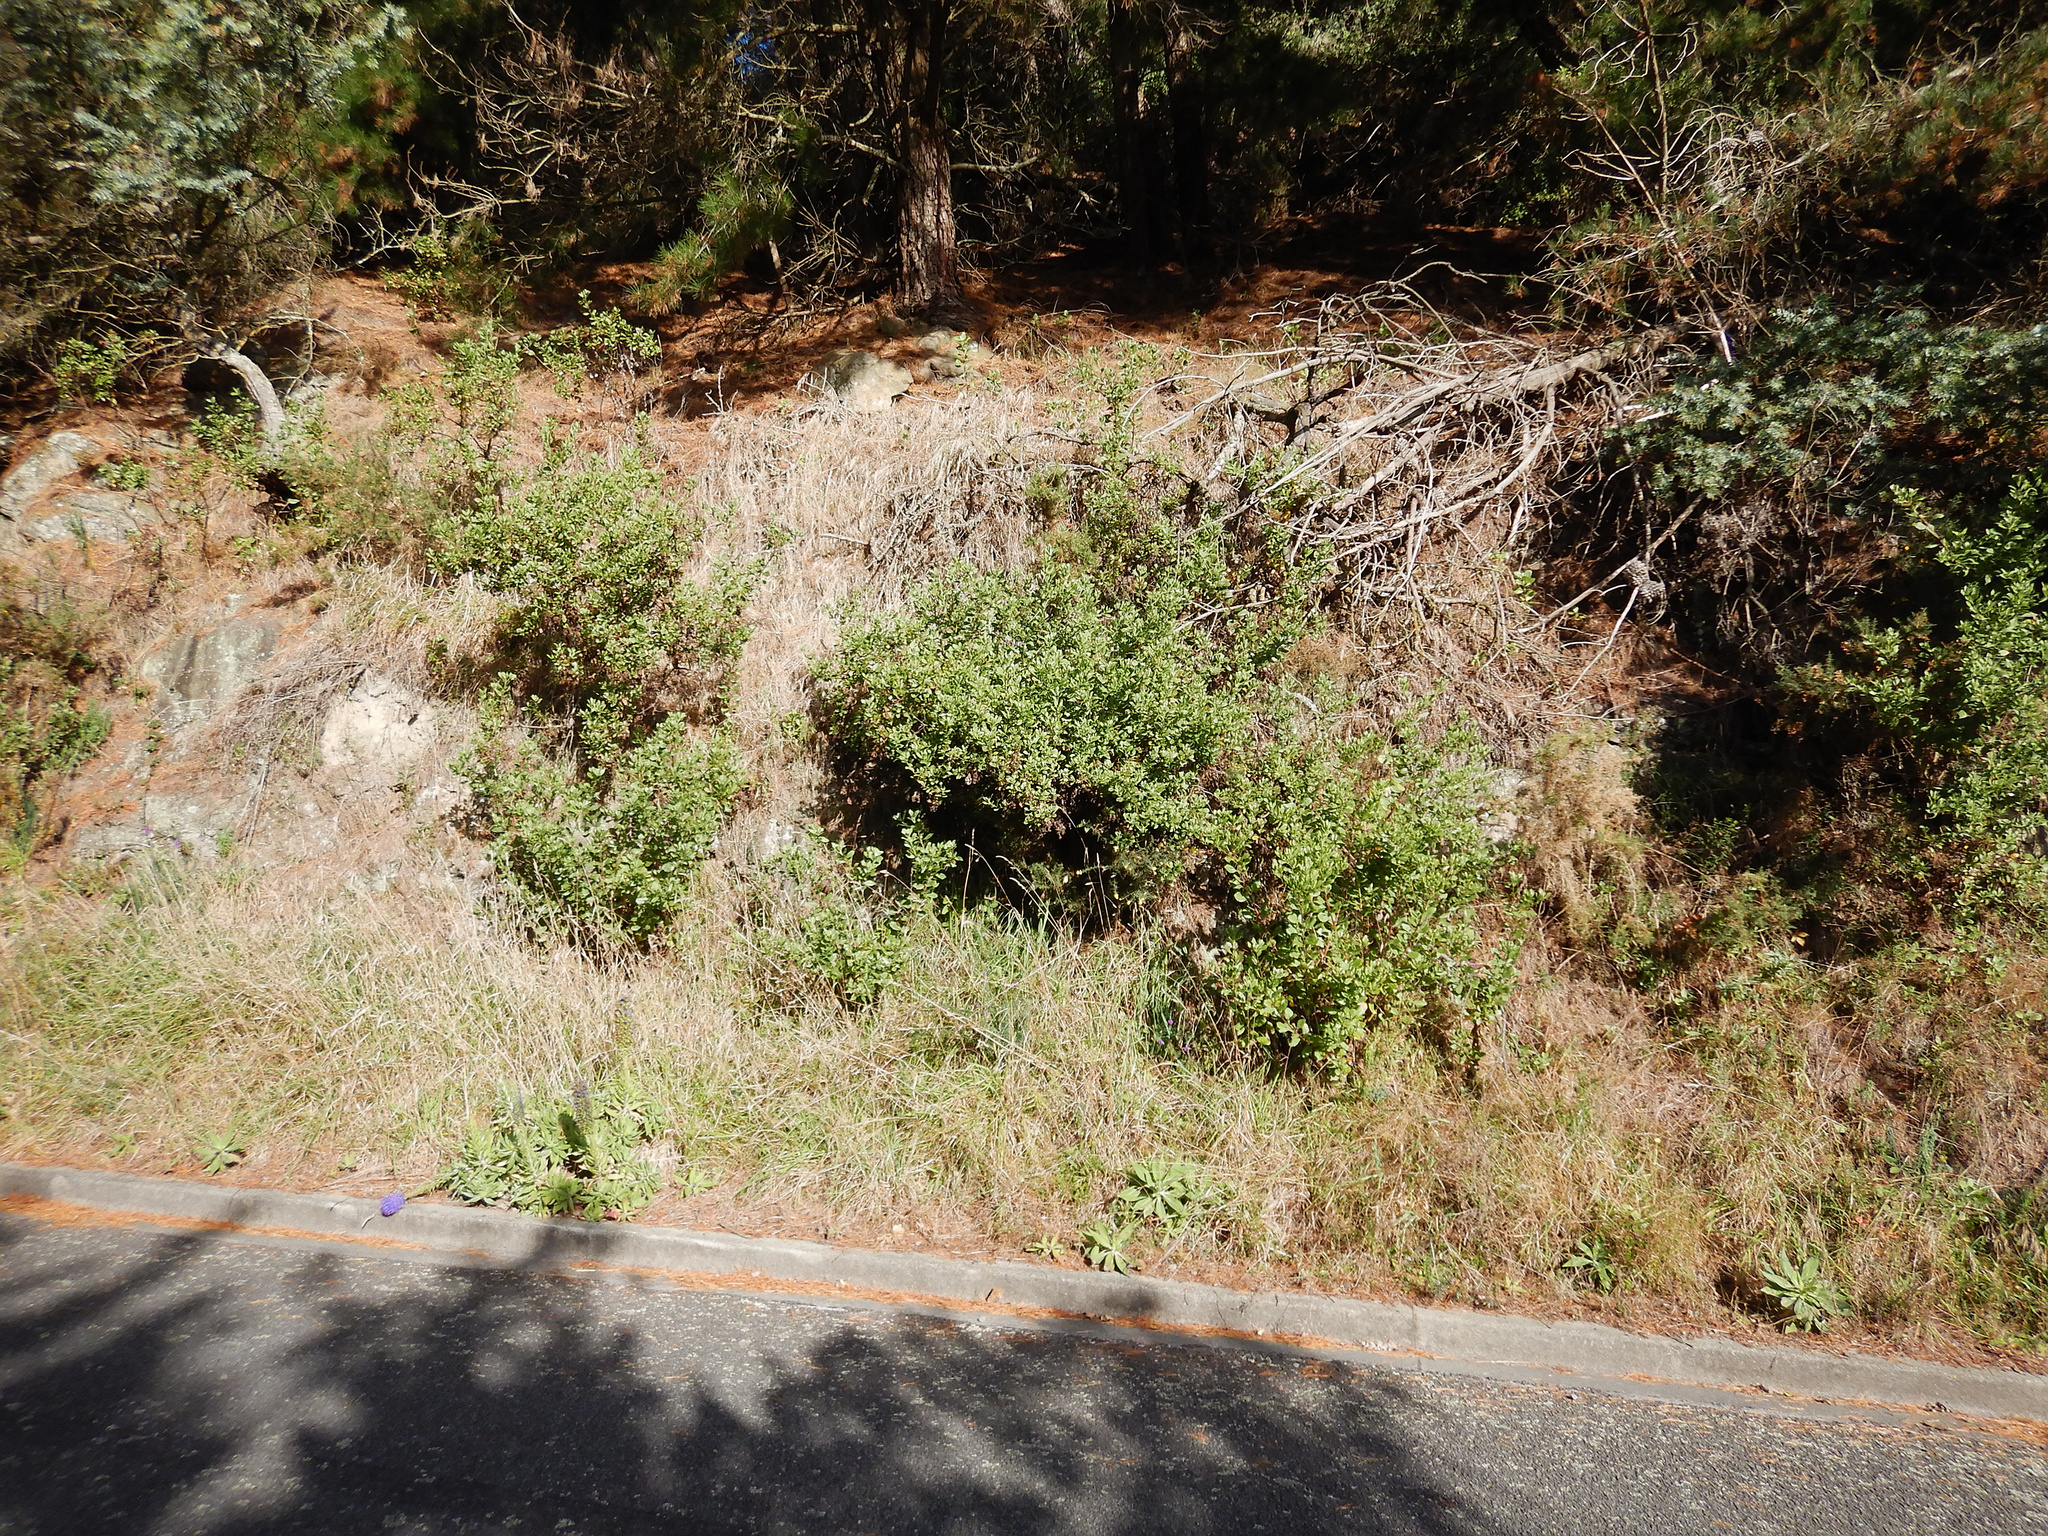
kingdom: Plantae
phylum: Tracheophyta
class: Magnoliopsida
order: Asterales
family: Asteraceae
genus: Osteospermum
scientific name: Osteospermum moniliferum
